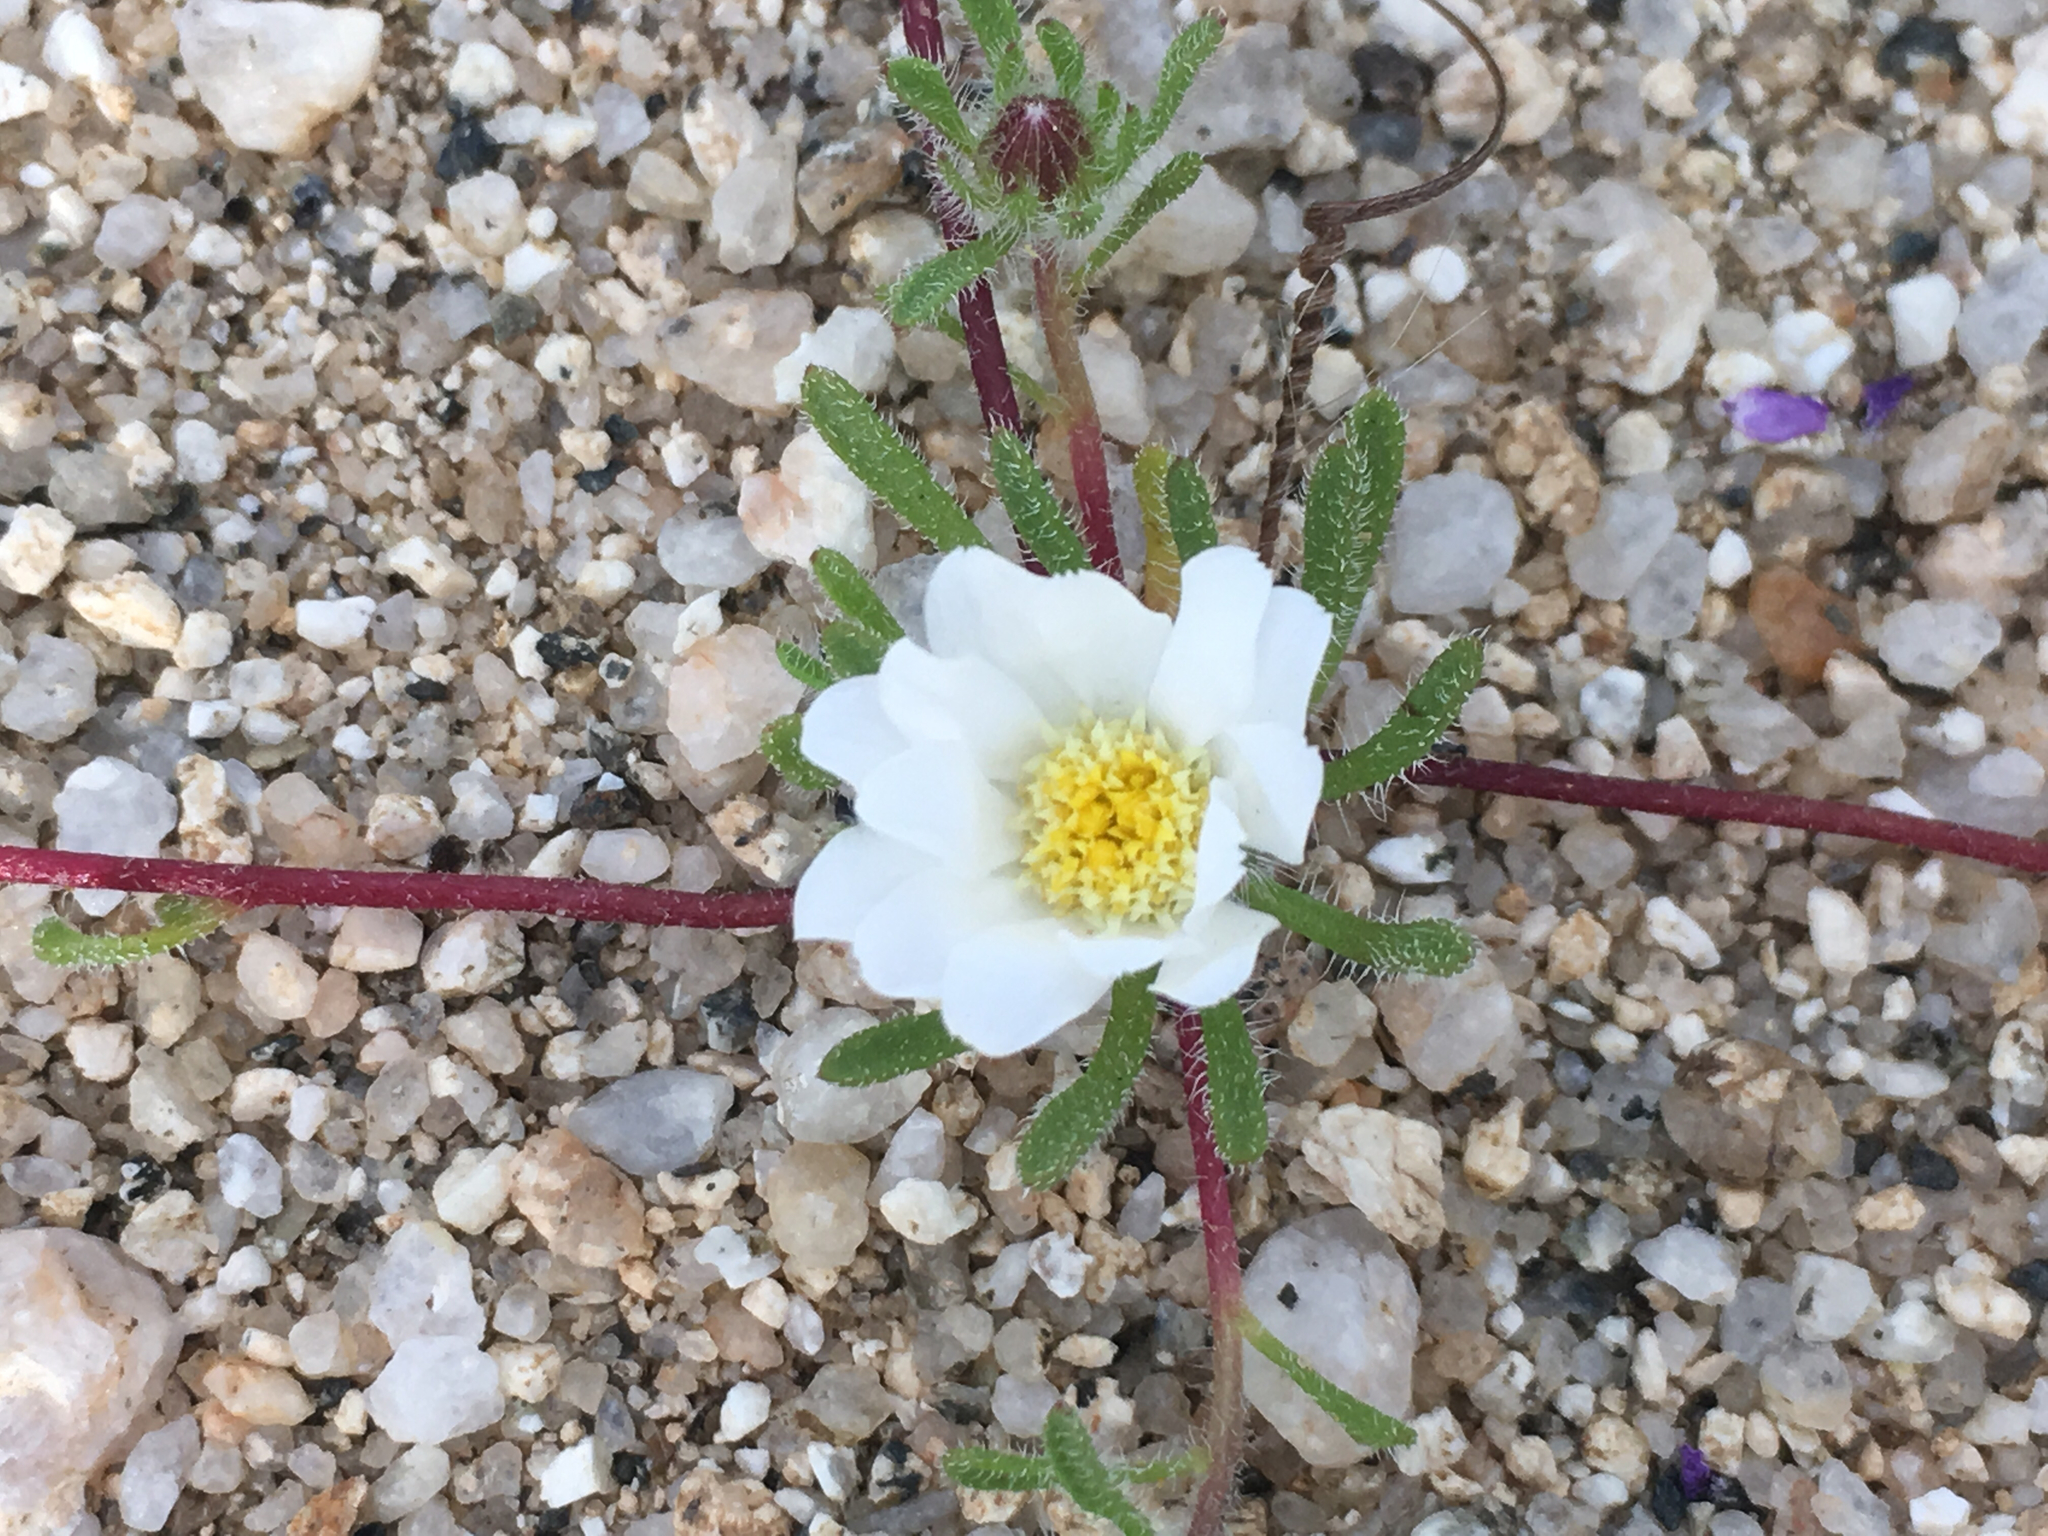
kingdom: Plantae
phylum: Tracheophyta
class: Magnoliopsida
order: Asterales
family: Asteraceae
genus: Monoptilon
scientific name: Monoptilon bellioides
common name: Bristly desertstar
